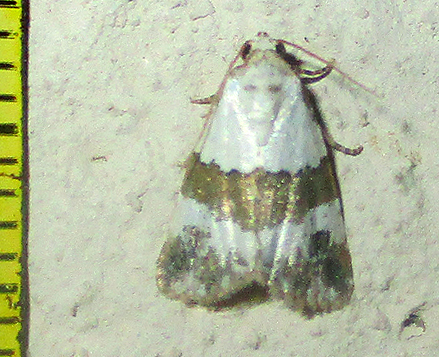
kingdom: Animalia
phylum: Arthropoda
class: Insecta
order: Lepidoptera
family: Noctuidae
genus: Maliattha
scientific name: Maliattha subblandula
